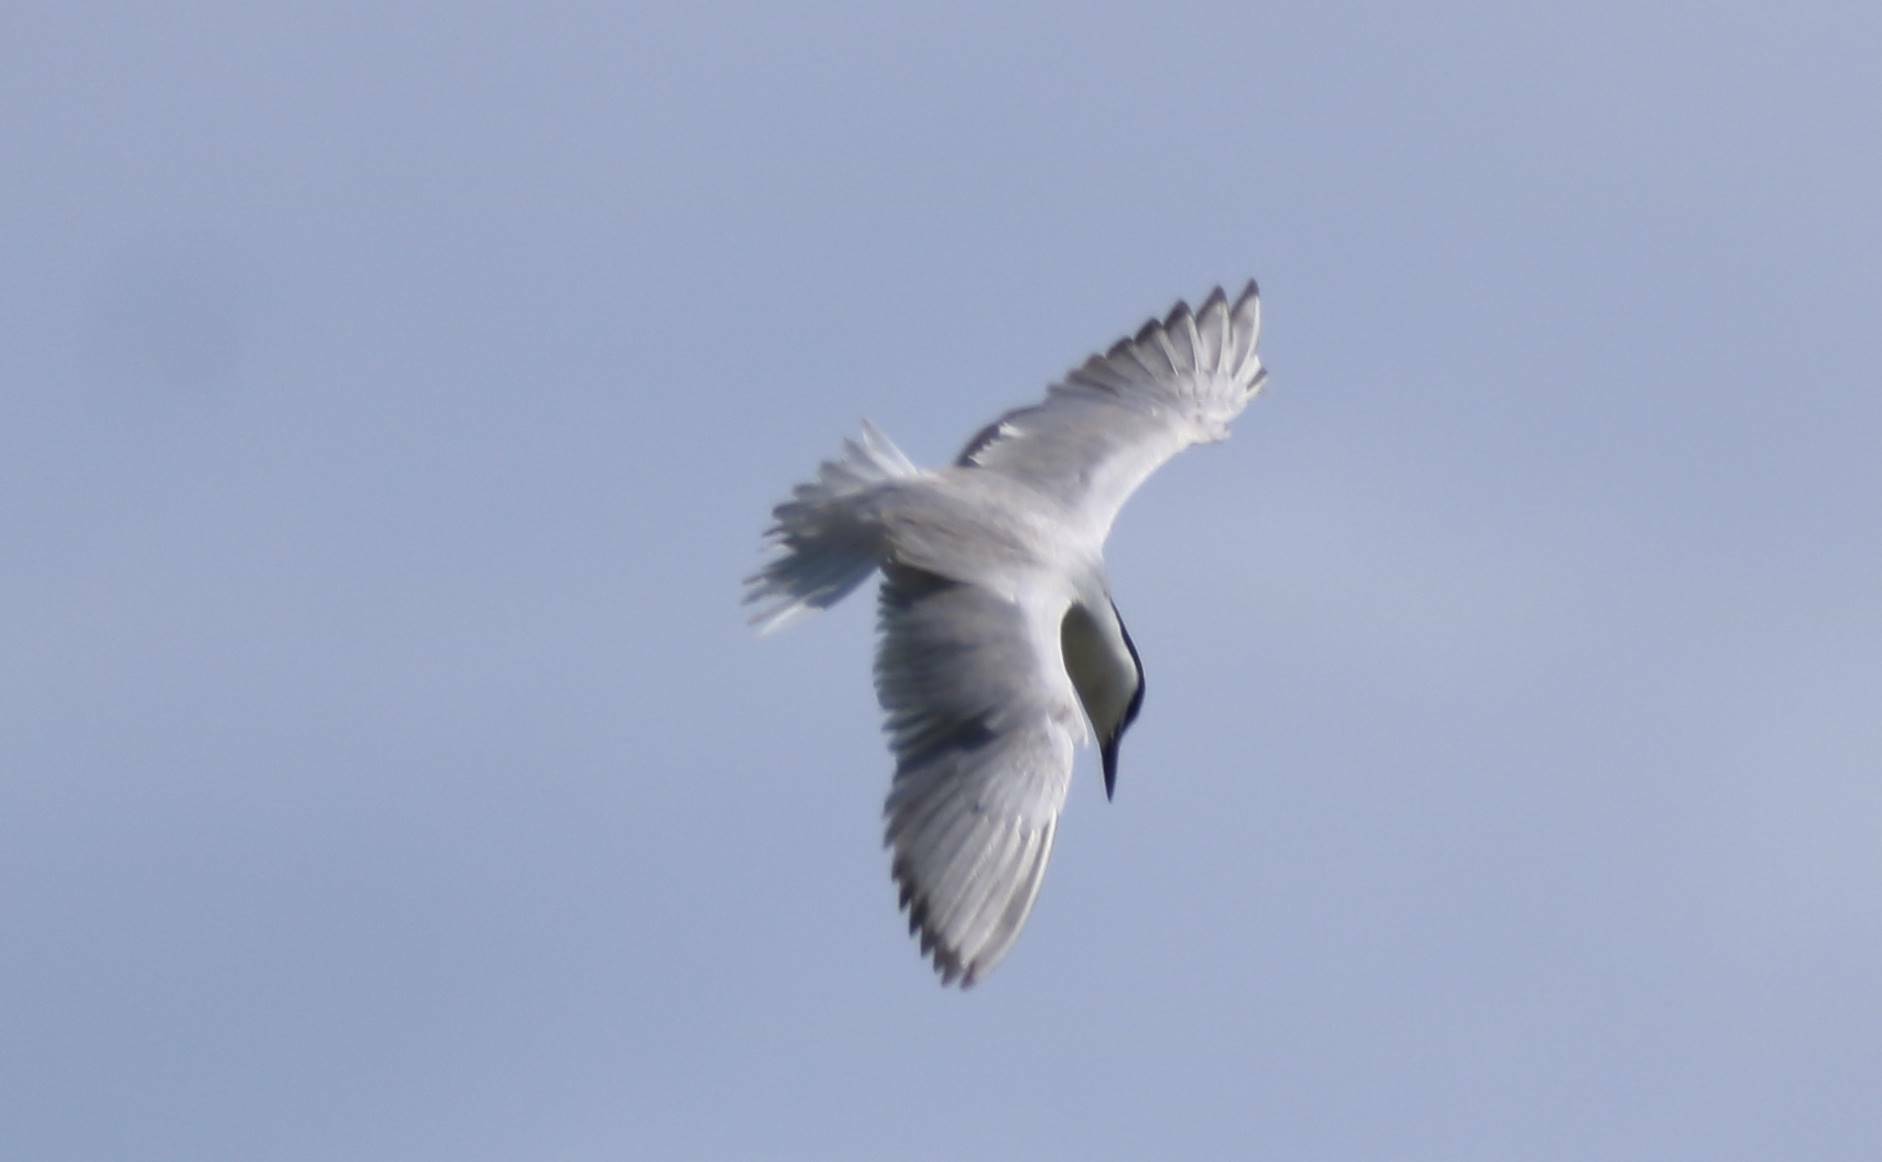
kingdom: Animalia
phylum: Chordata
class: Aves
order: Charadriiformes
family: Laridae
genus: Gelochelidon
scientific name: Gelochelidon nilotica
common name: Gull-billed tern
